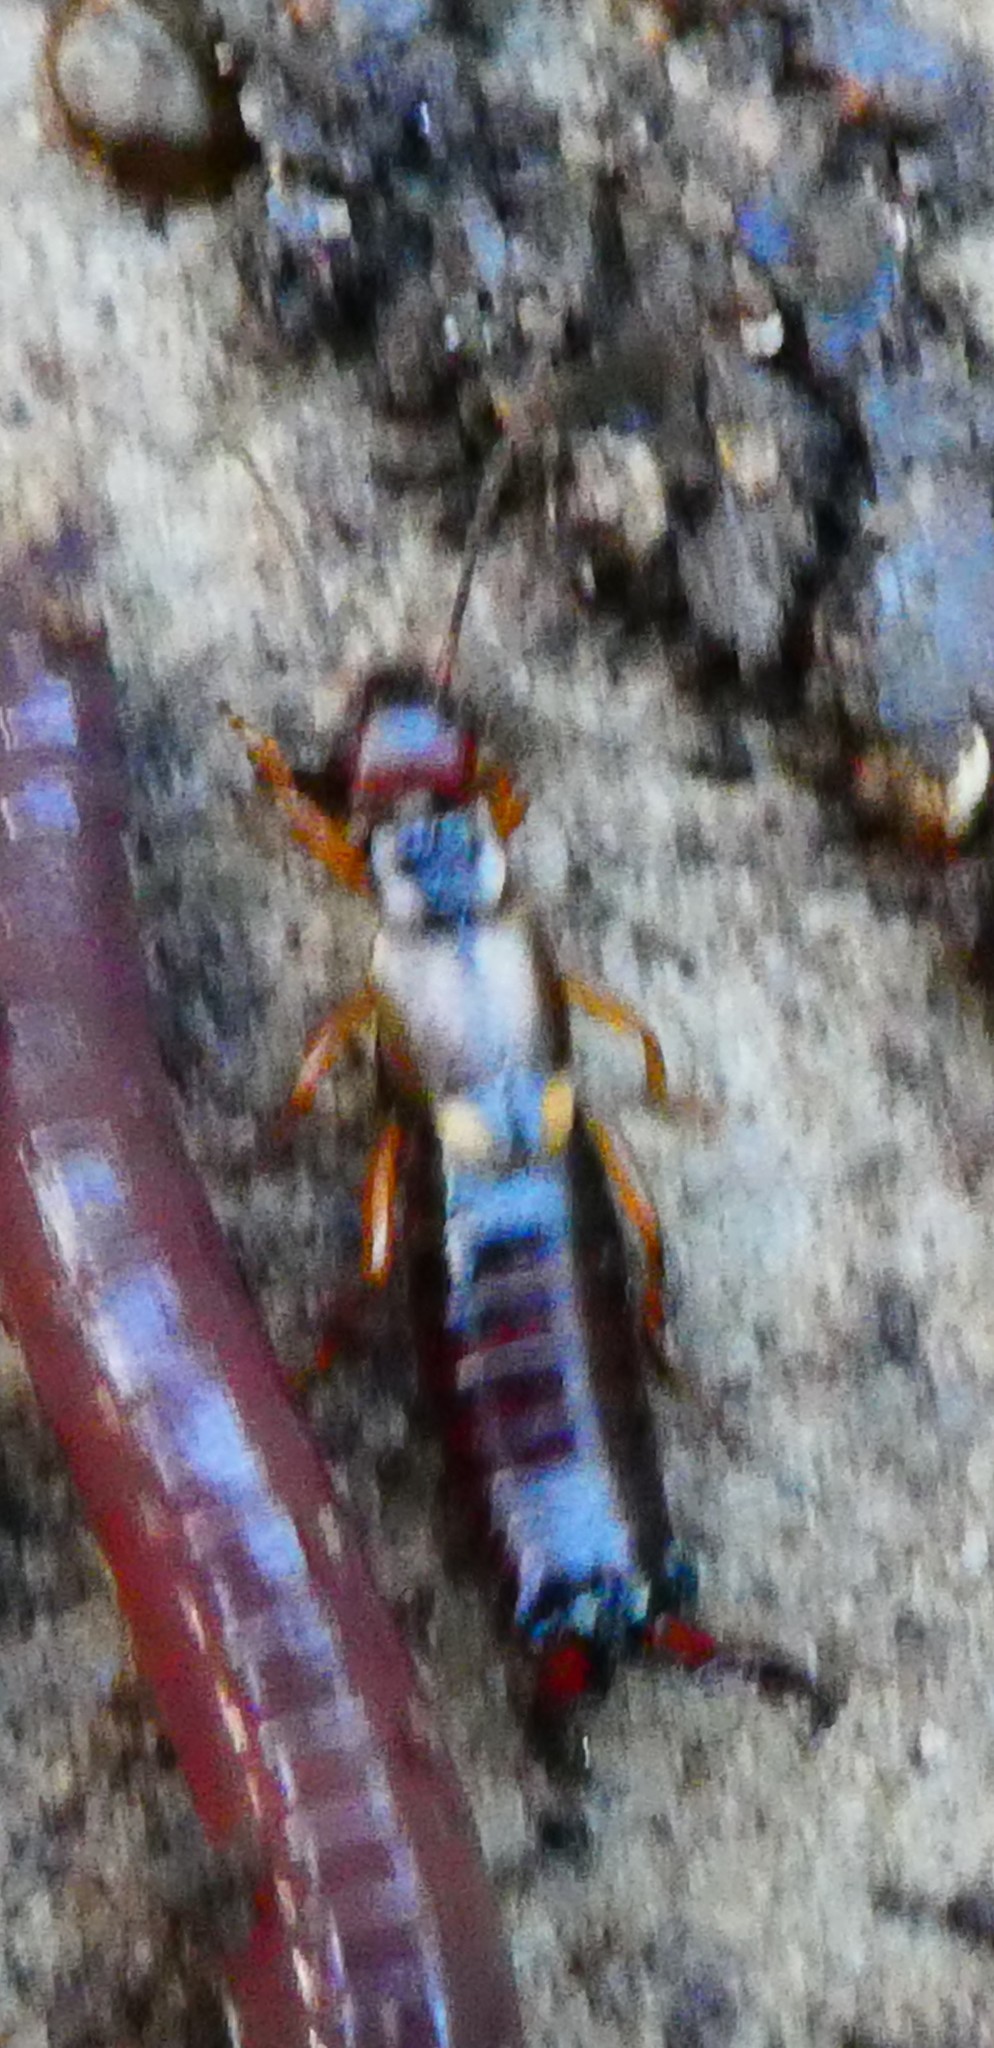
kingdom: Animalia
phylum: Arthropoda
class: Insecta
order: Dermaptera
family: Forficulidae
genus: Forficula
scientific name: Forficula
